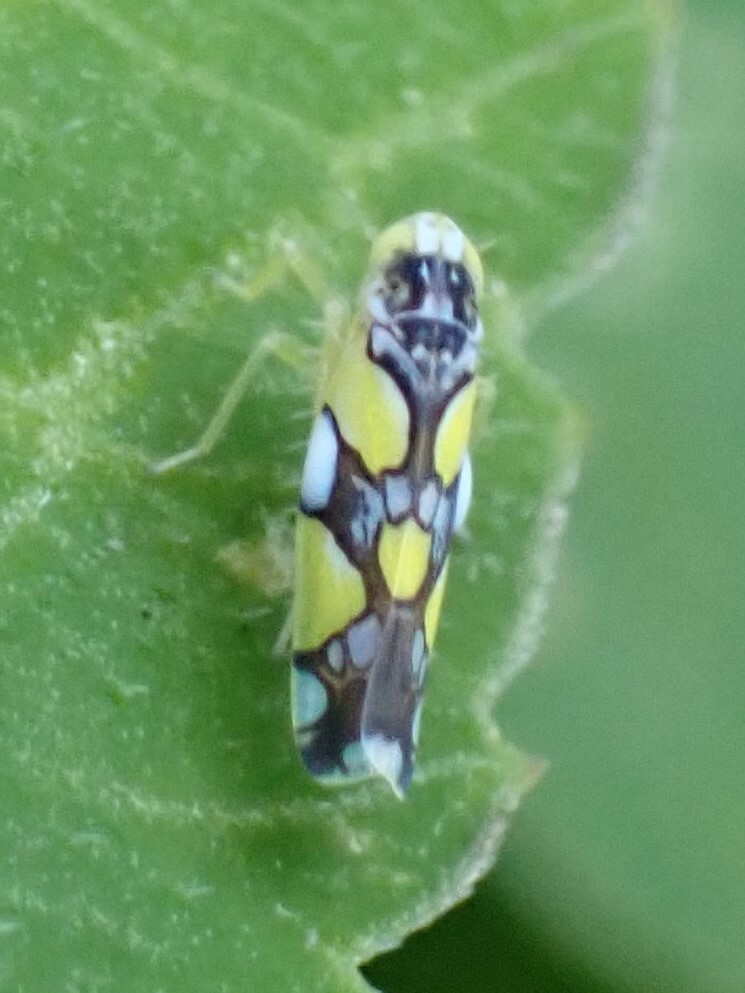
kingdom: Animalia
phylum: Arthropoda
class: Insecta
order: Hemiptera
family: Cicadellidae
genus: Protalebrella
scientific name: Protalebrella brasiliensis
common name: Brasilian leafhopper
